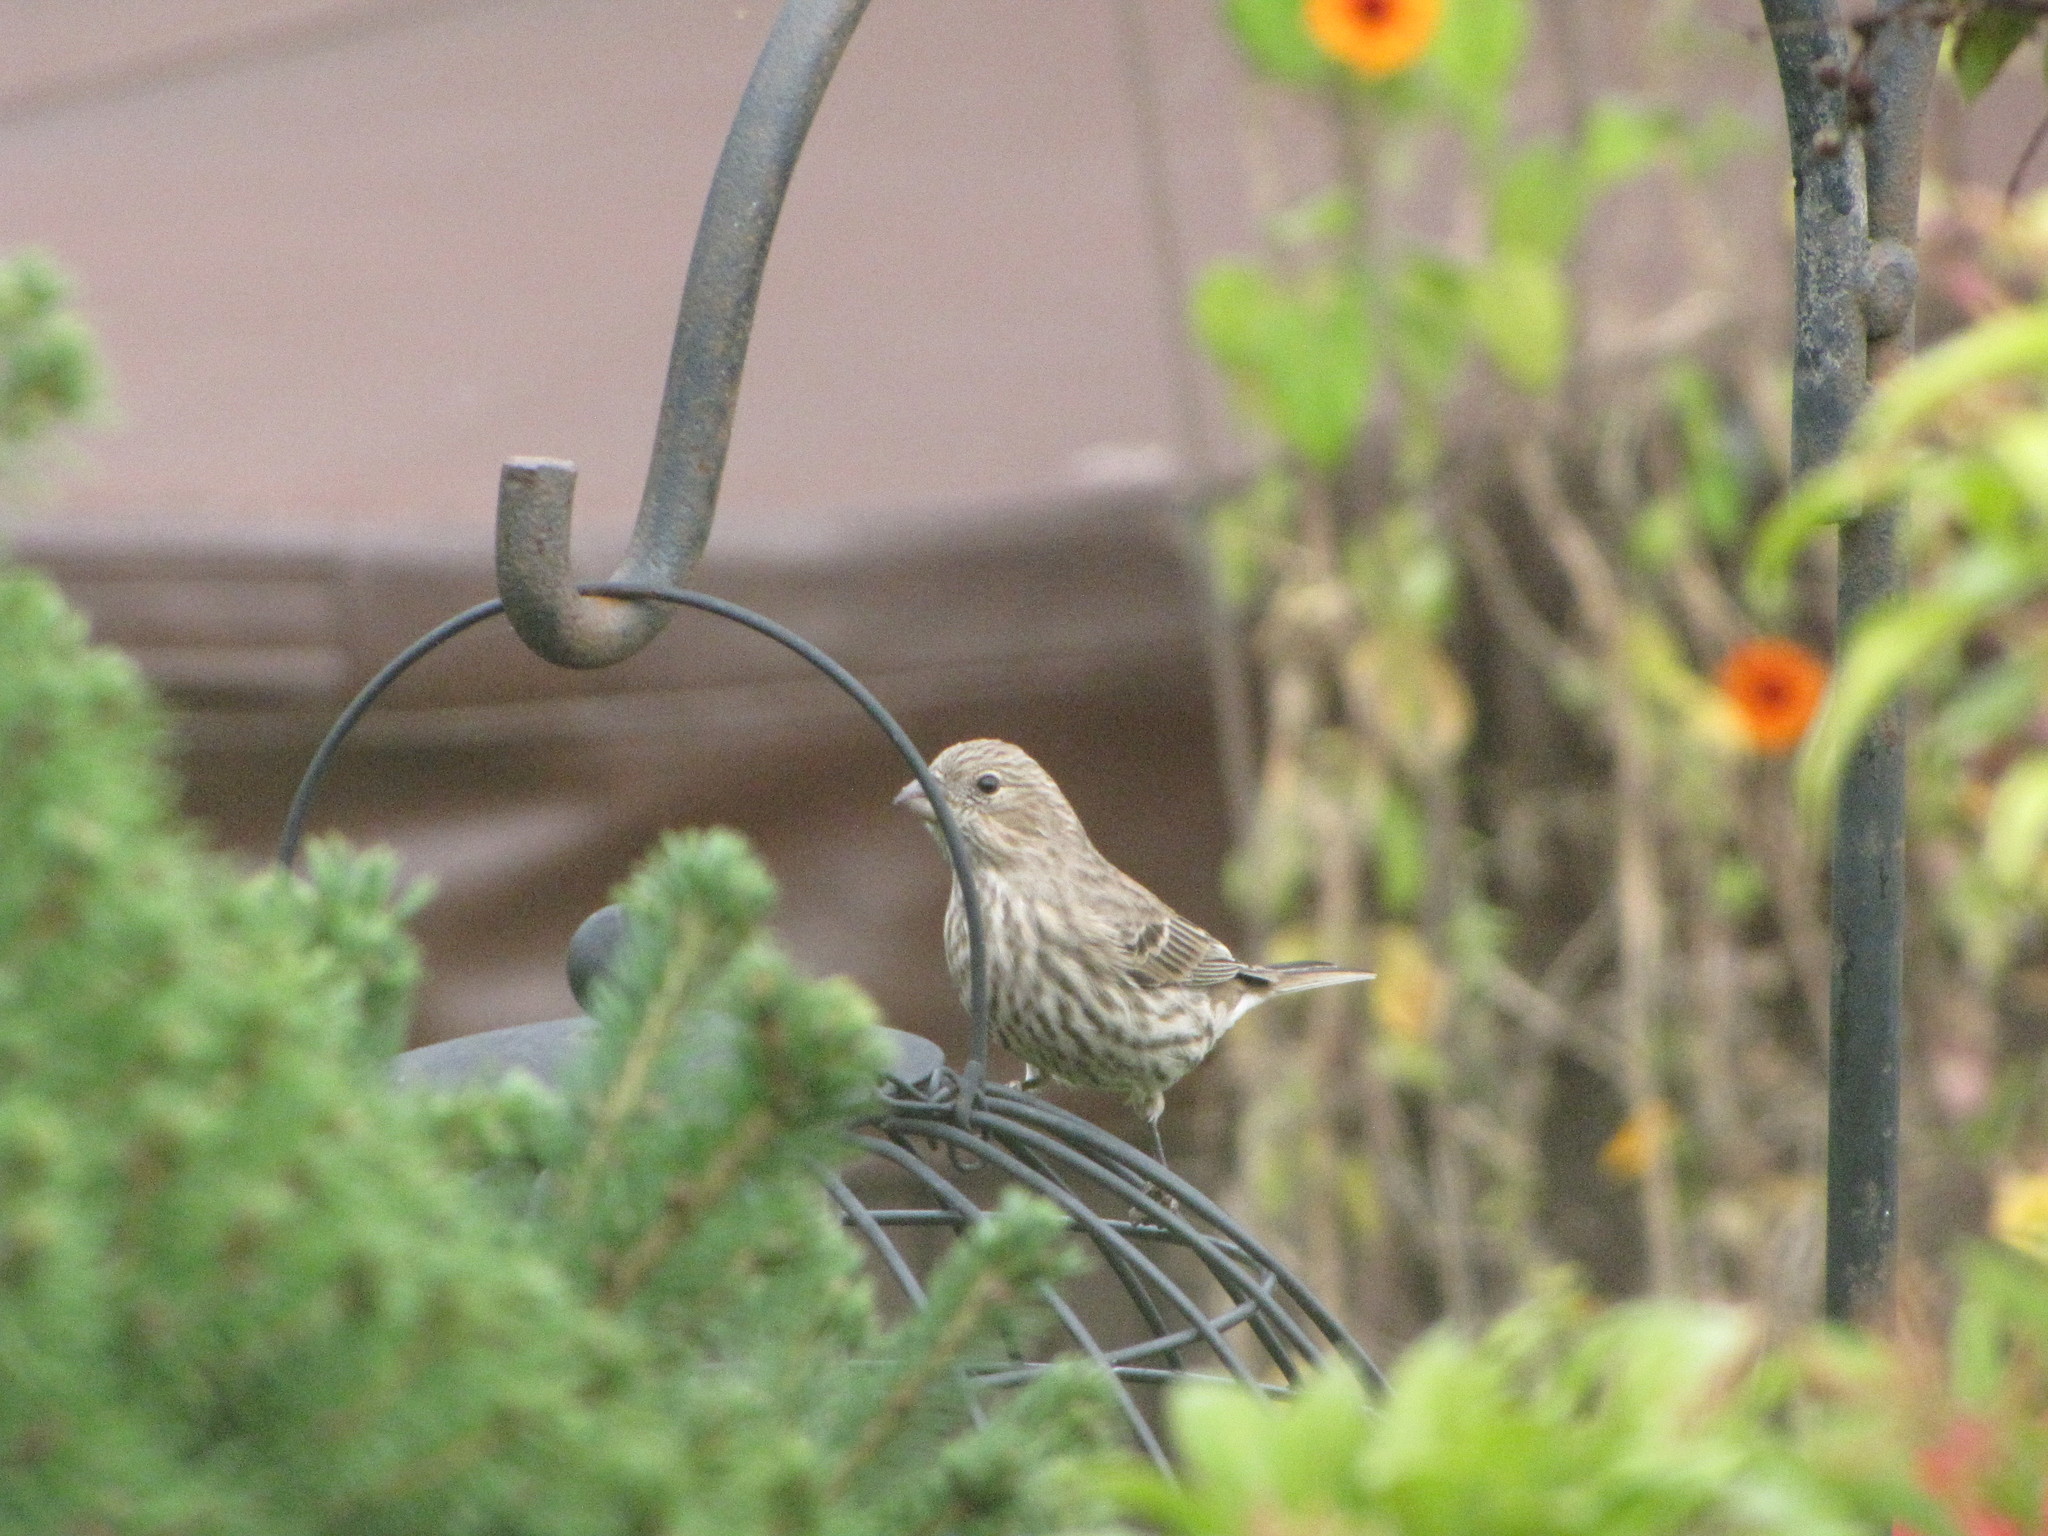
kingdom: Animalia
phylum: Chordata
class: Aves
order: Passeriformes
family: Fringillidae
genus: Haemorhous
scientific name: Haemorhous mexicanus
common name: House finch
